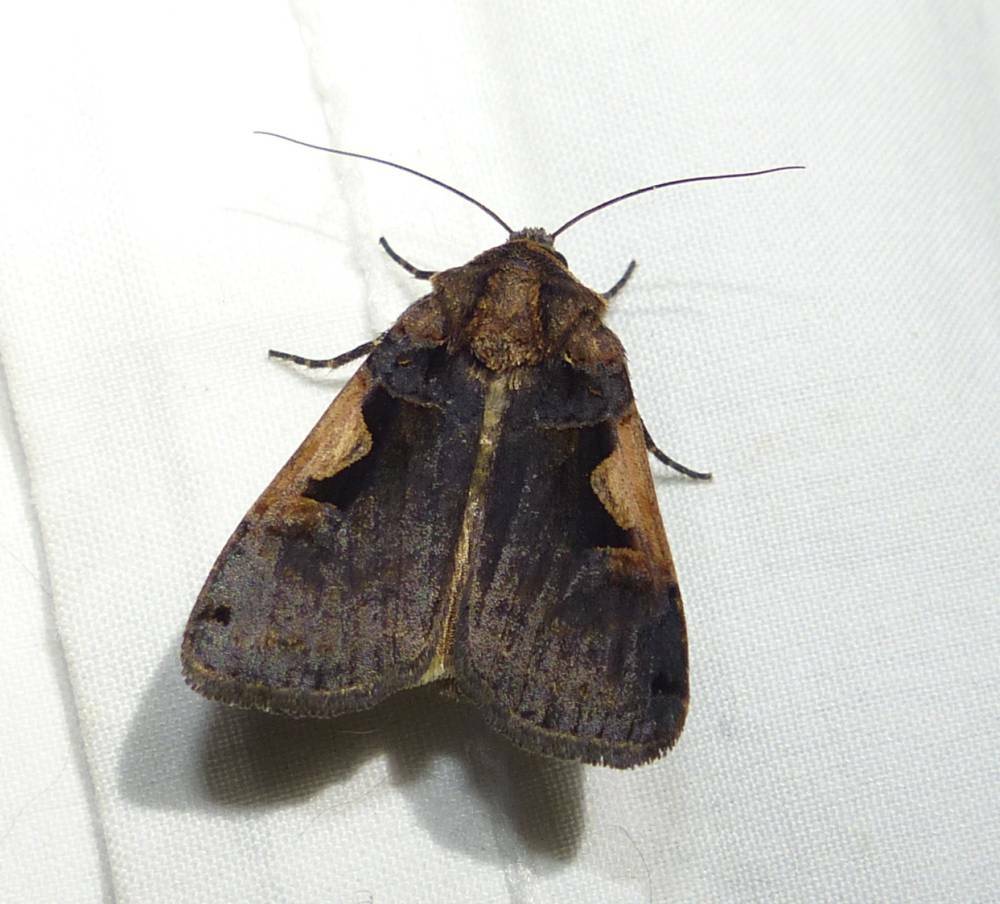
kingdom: Animalia
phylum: Arthropoda
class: Insecta
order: Lepidoptera
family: Noctuidae
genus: Xestia
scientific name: Xestia
